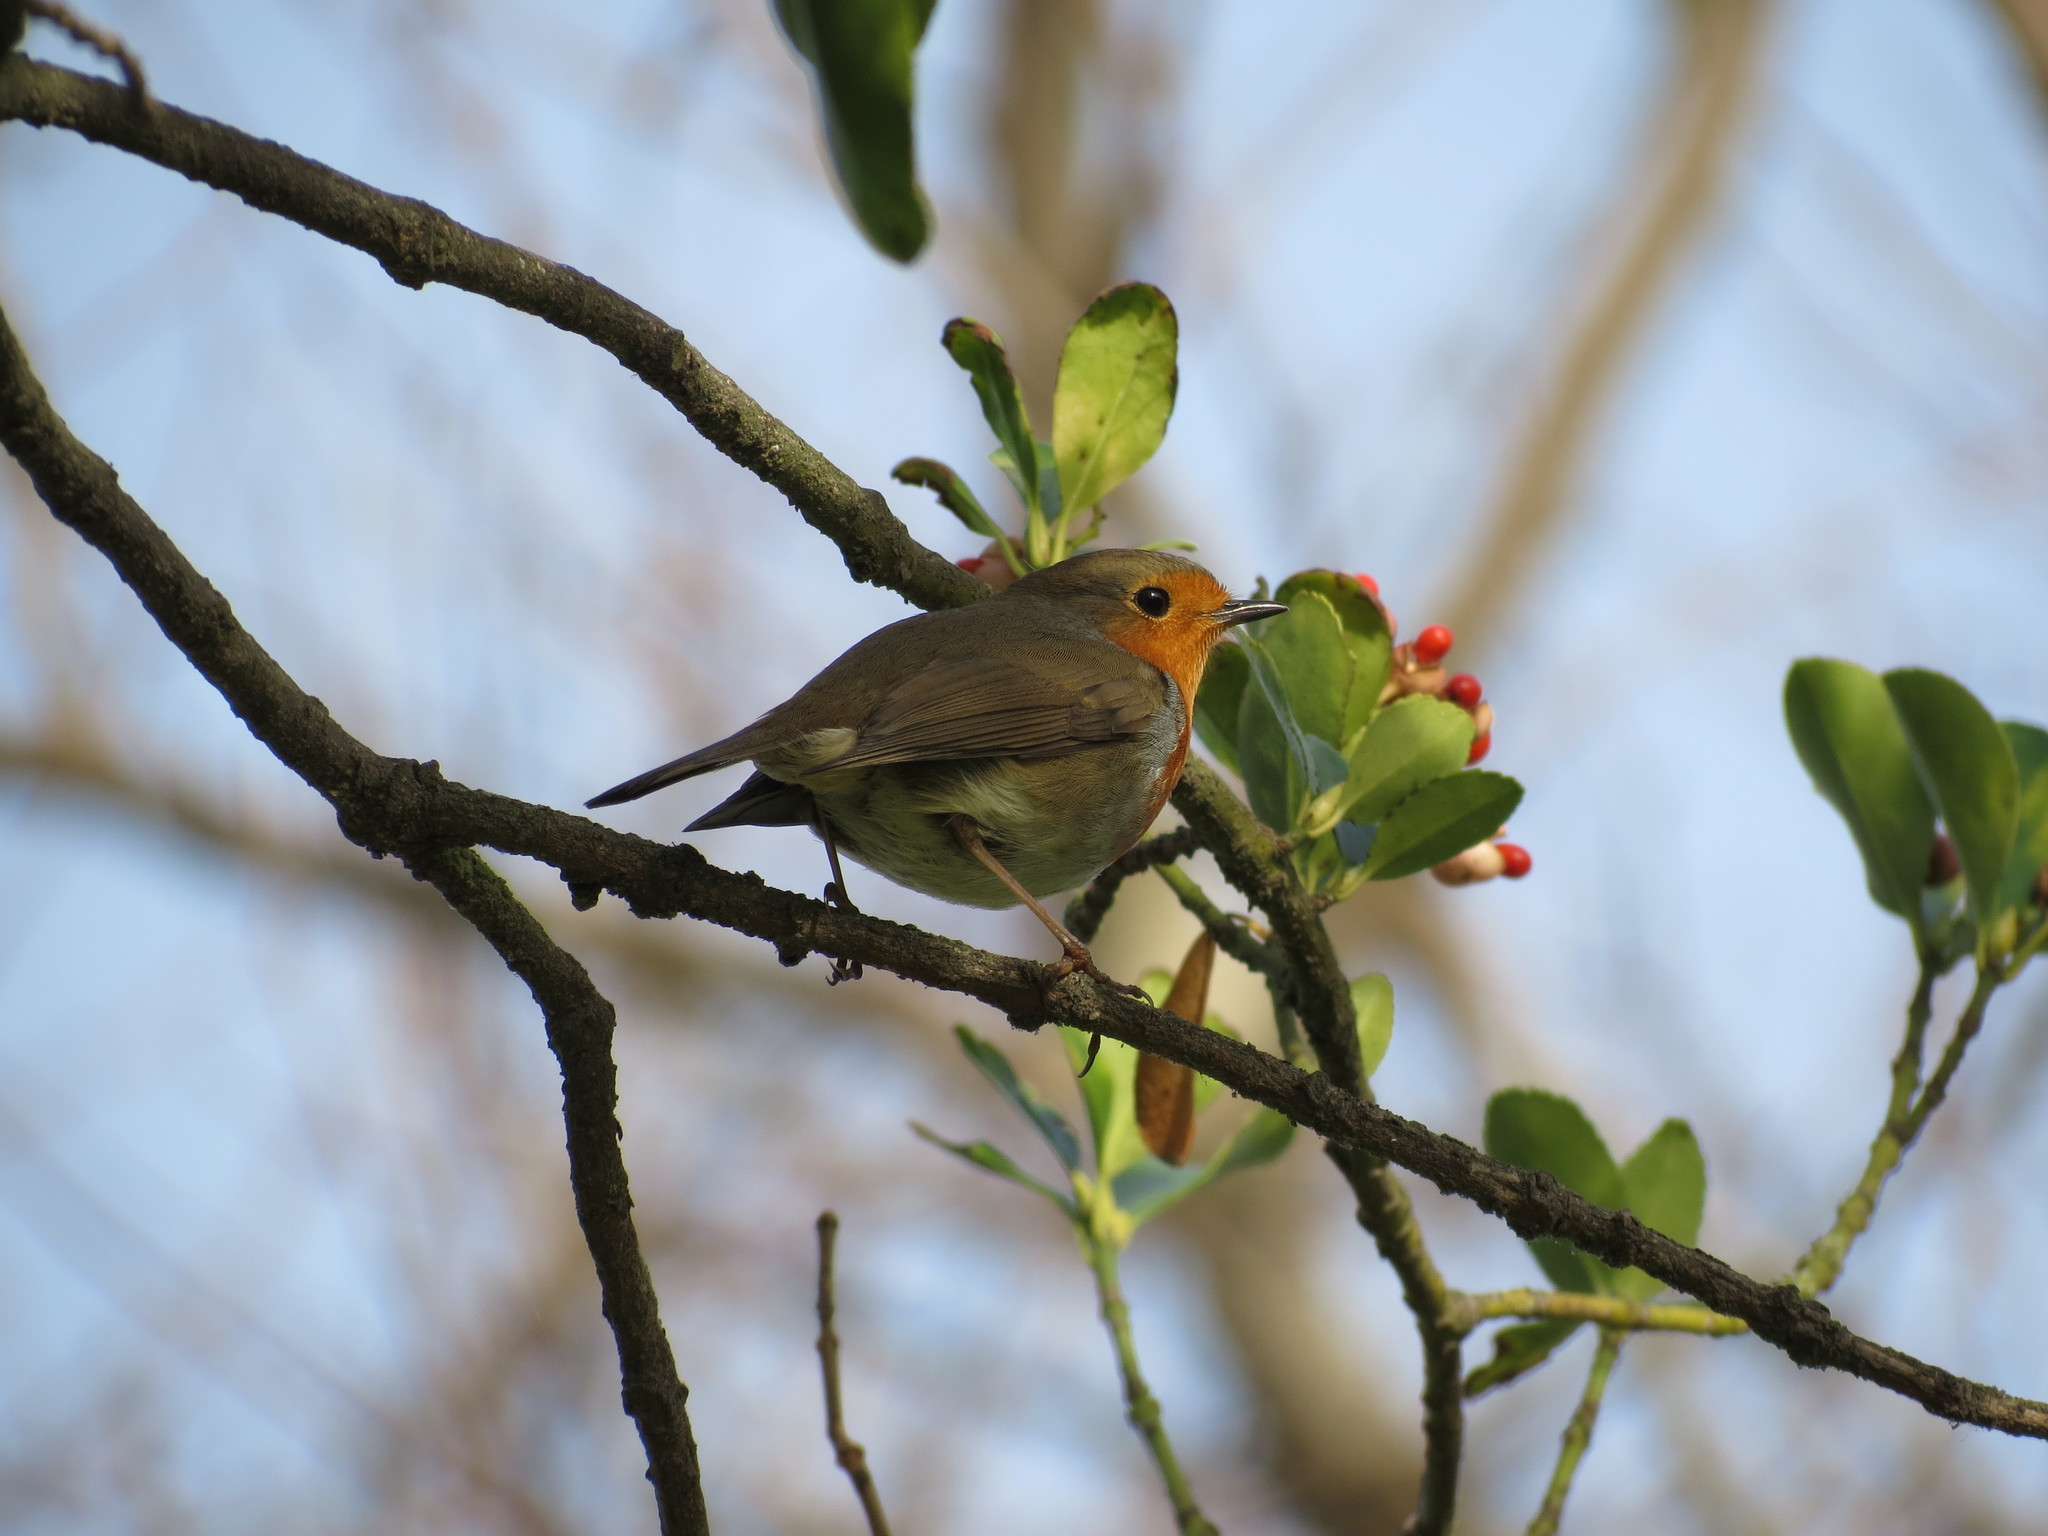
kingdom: Animalia
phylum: Chordata
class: Aves
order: Passeriformes
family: Muscicapidae
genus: Erithacus
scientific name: Erithacus rubecula
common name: European robin
